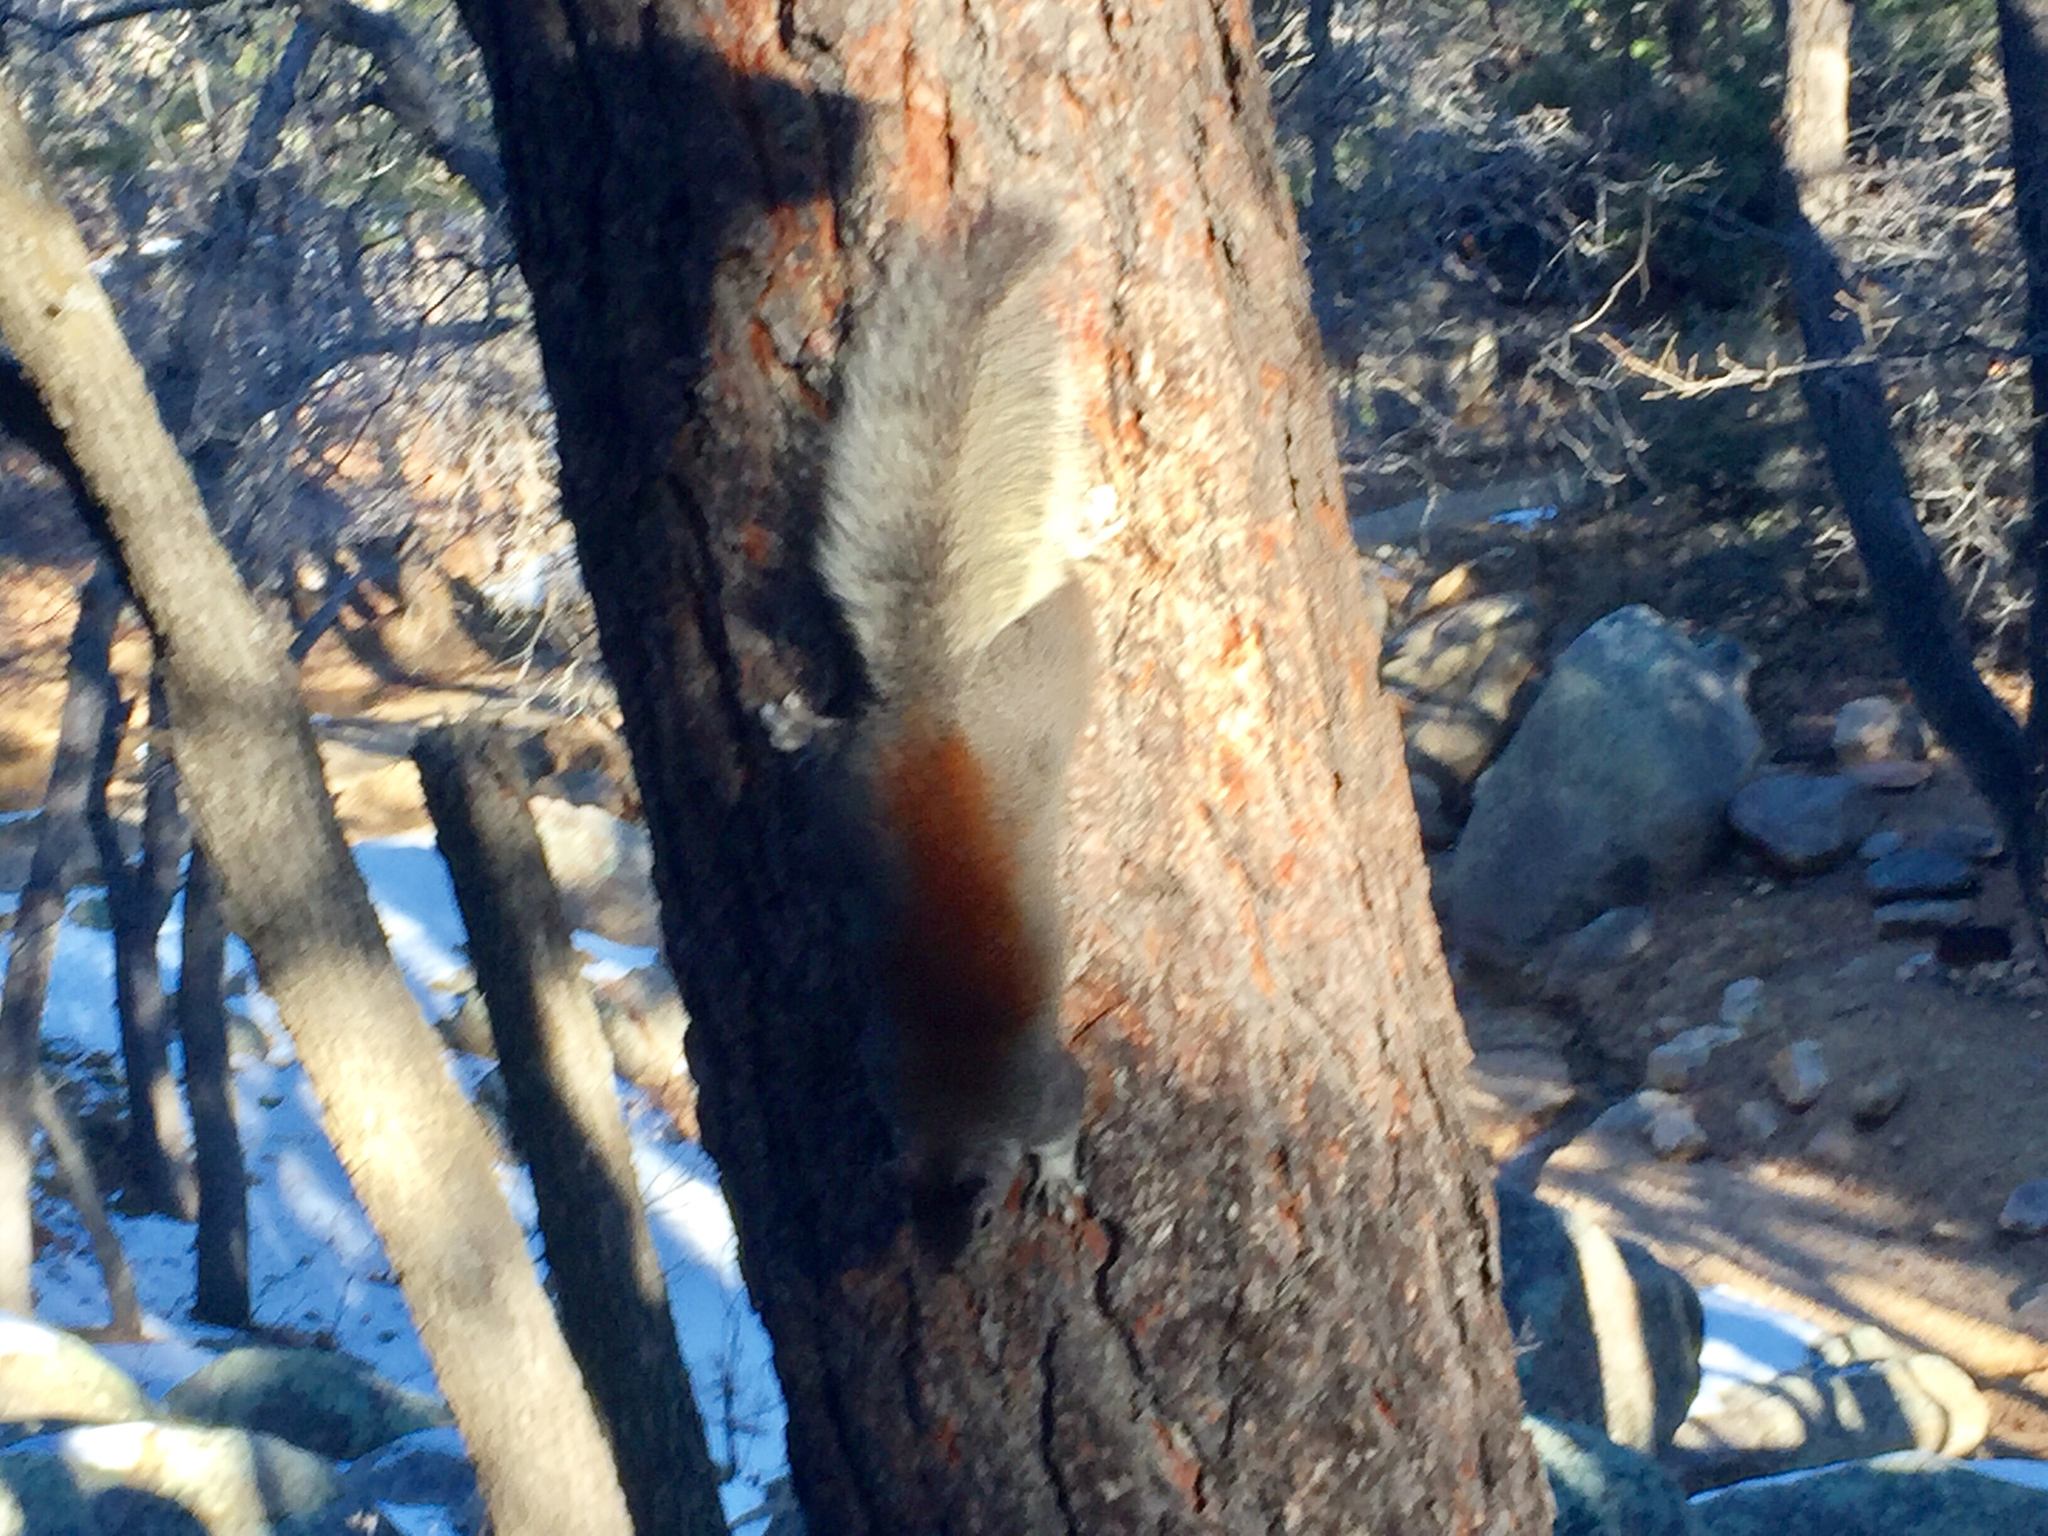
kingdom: Animalia
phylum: Chordata
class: Mammalia
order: Rodentia
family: Sciuridae
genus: Sciurus
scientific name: Sciurus aberti
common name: Abert's squirrel
